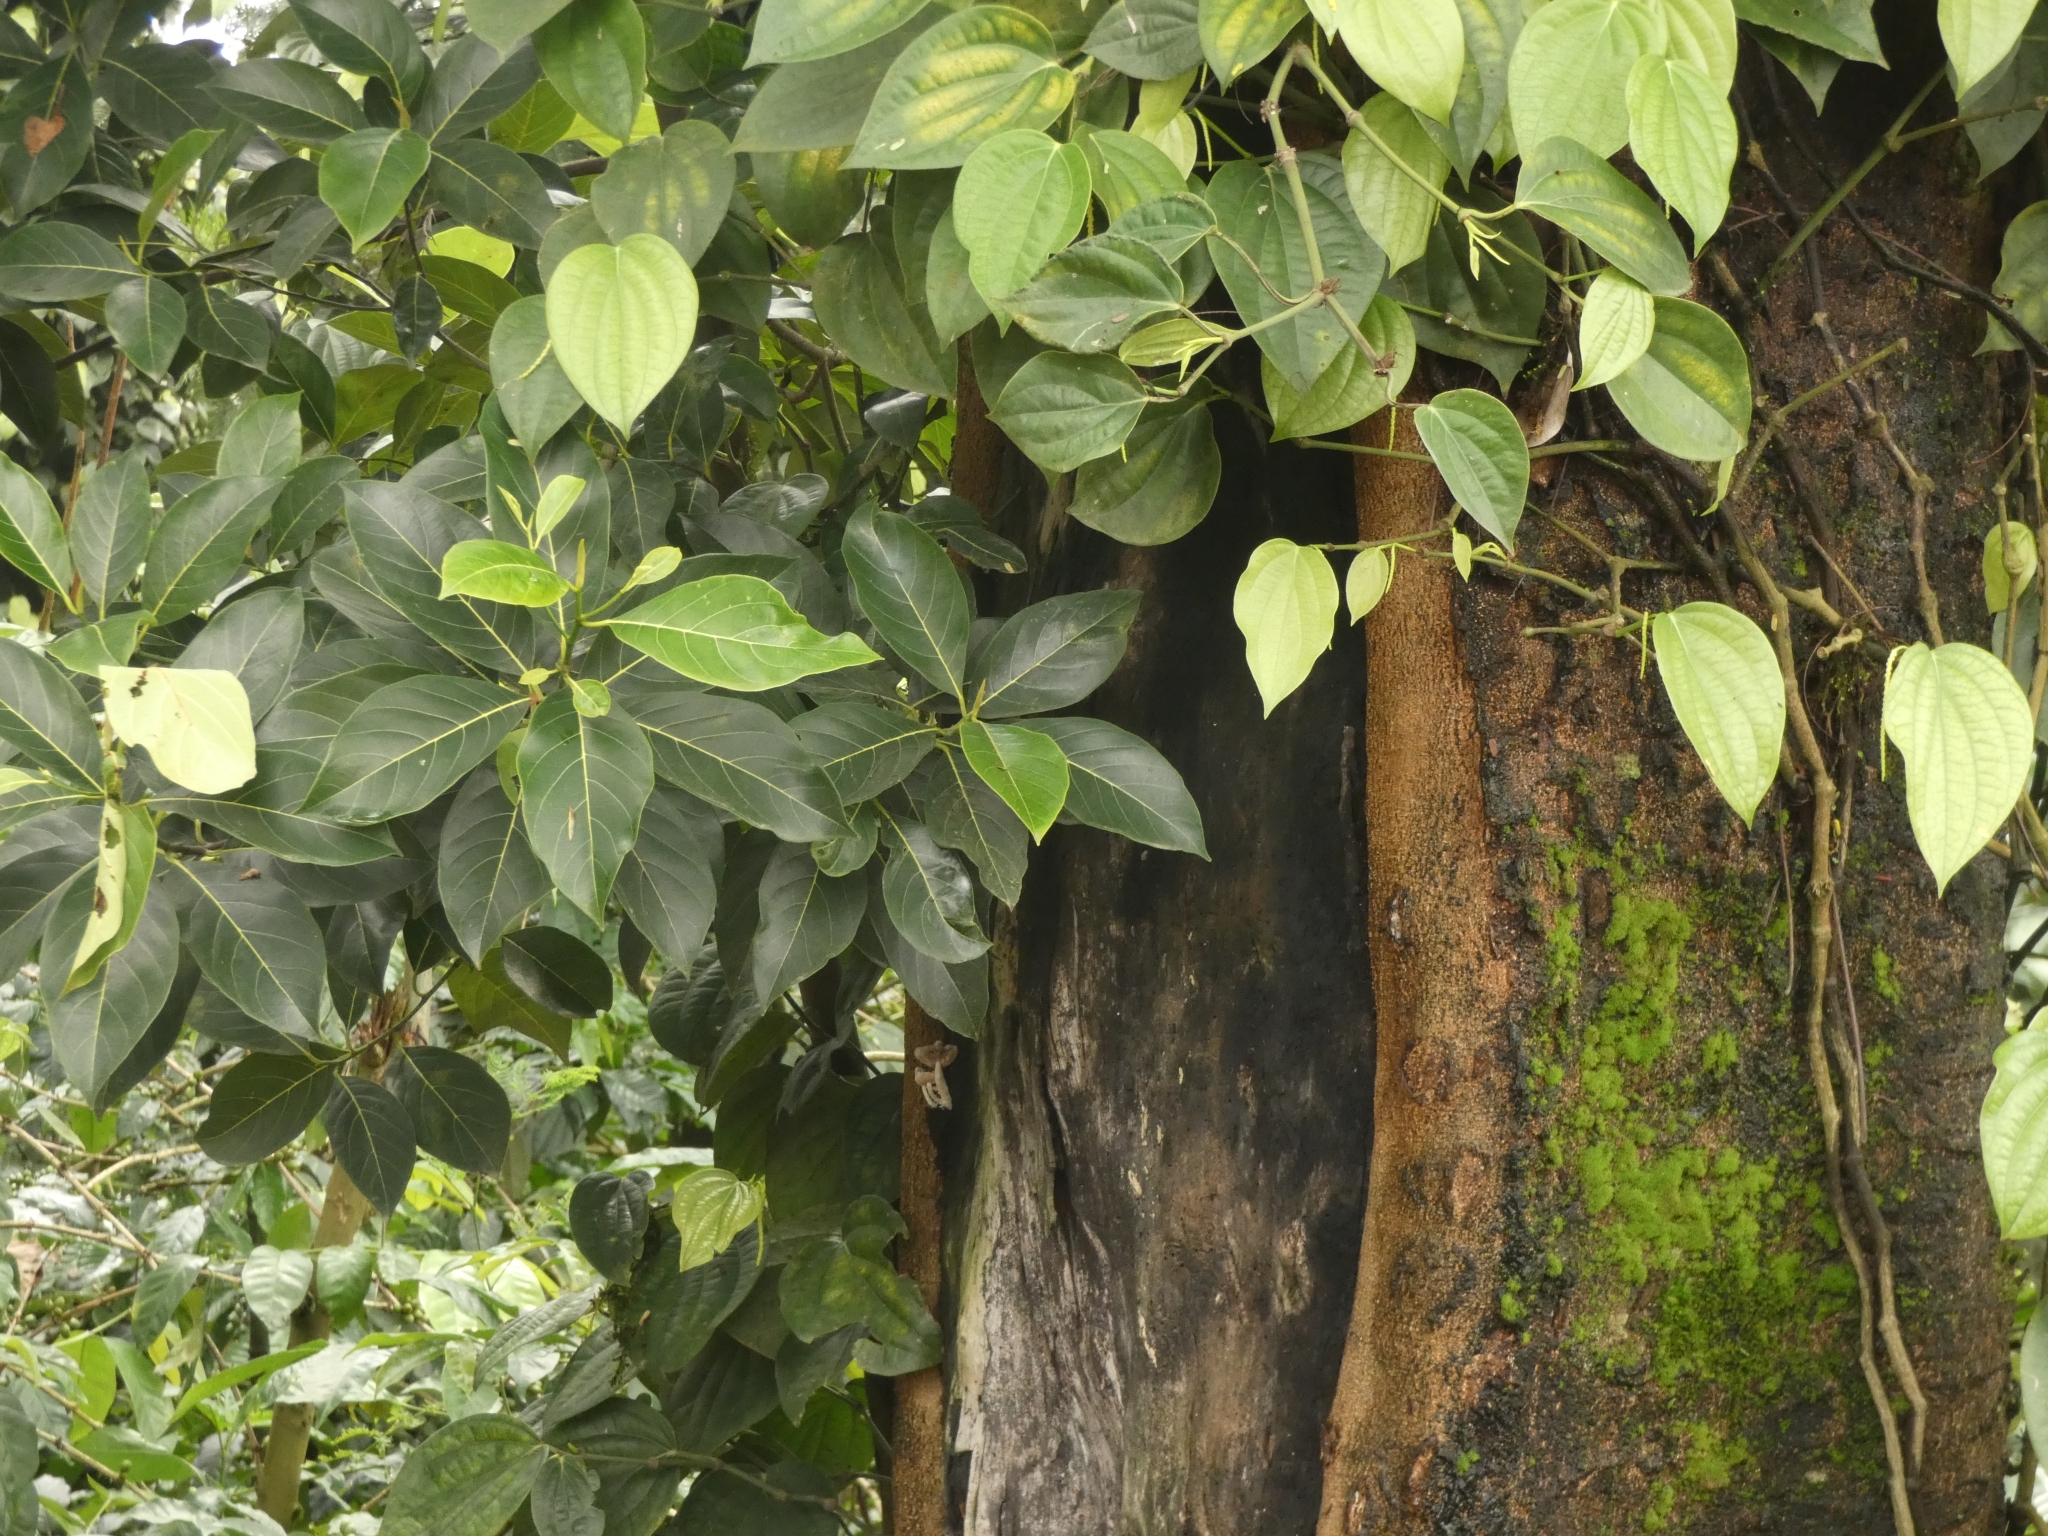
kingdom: Plantae
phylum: Tracheophyta
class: Magnoliopsida
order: Fabales
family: Fabaceae
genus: Delonix
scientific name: Delonix regia
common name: Royal poinciana
